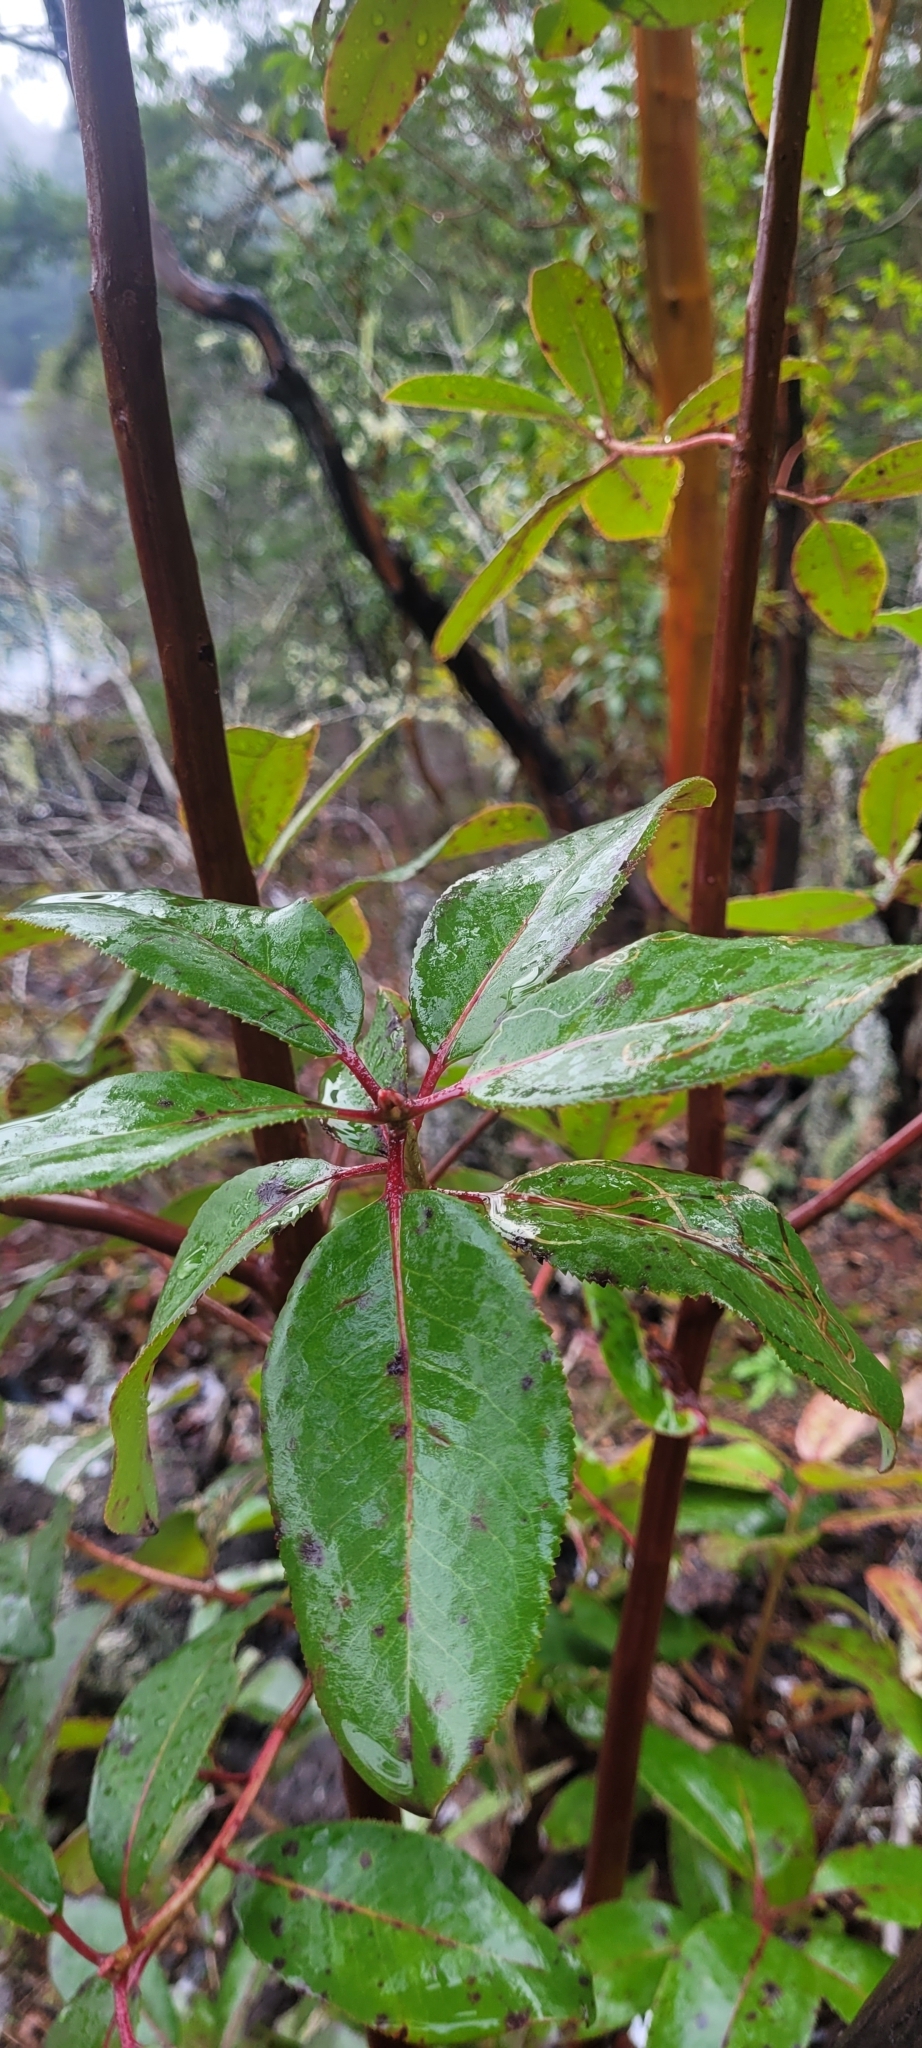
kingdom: Plantae
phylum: Tracheophyta
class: Magnoliopsida
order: Ericales
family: Ericaceae
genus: Arbutus
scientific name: Arbutus menziesii
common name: Pacific madrone
